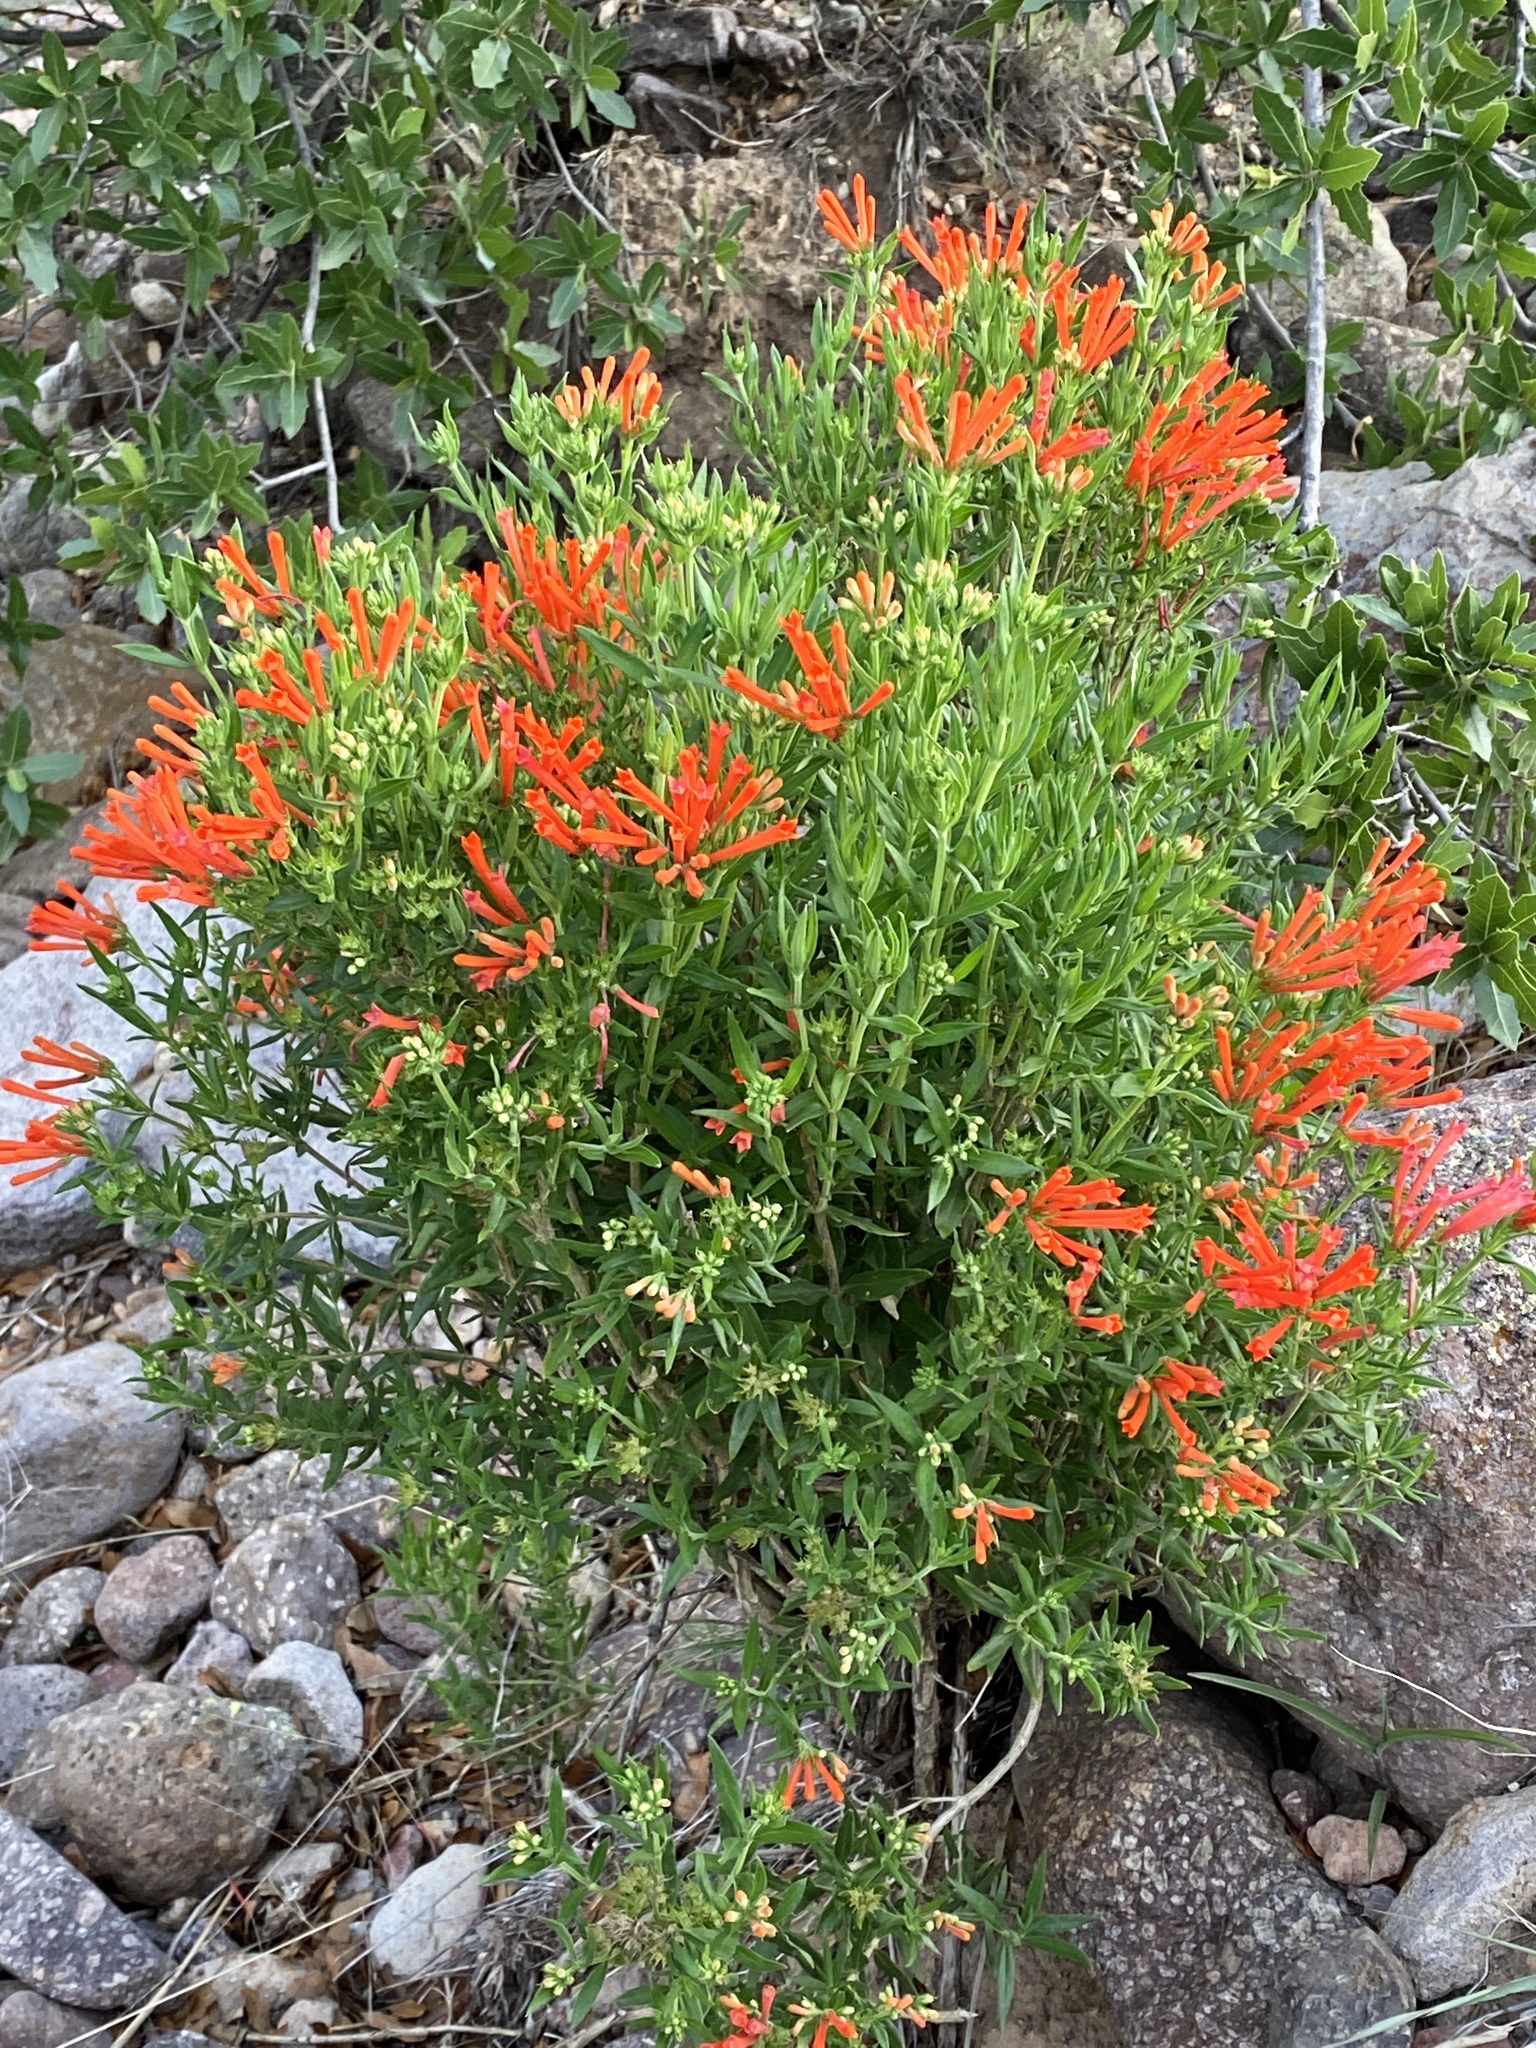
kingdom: Plantae
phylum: Tracheophyta
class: Magnoliopsida
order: Gentianales
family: Rubiaceae
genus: Bouvardia
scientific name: Bouvardia ternifolia
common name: Scarlet bouvardia
